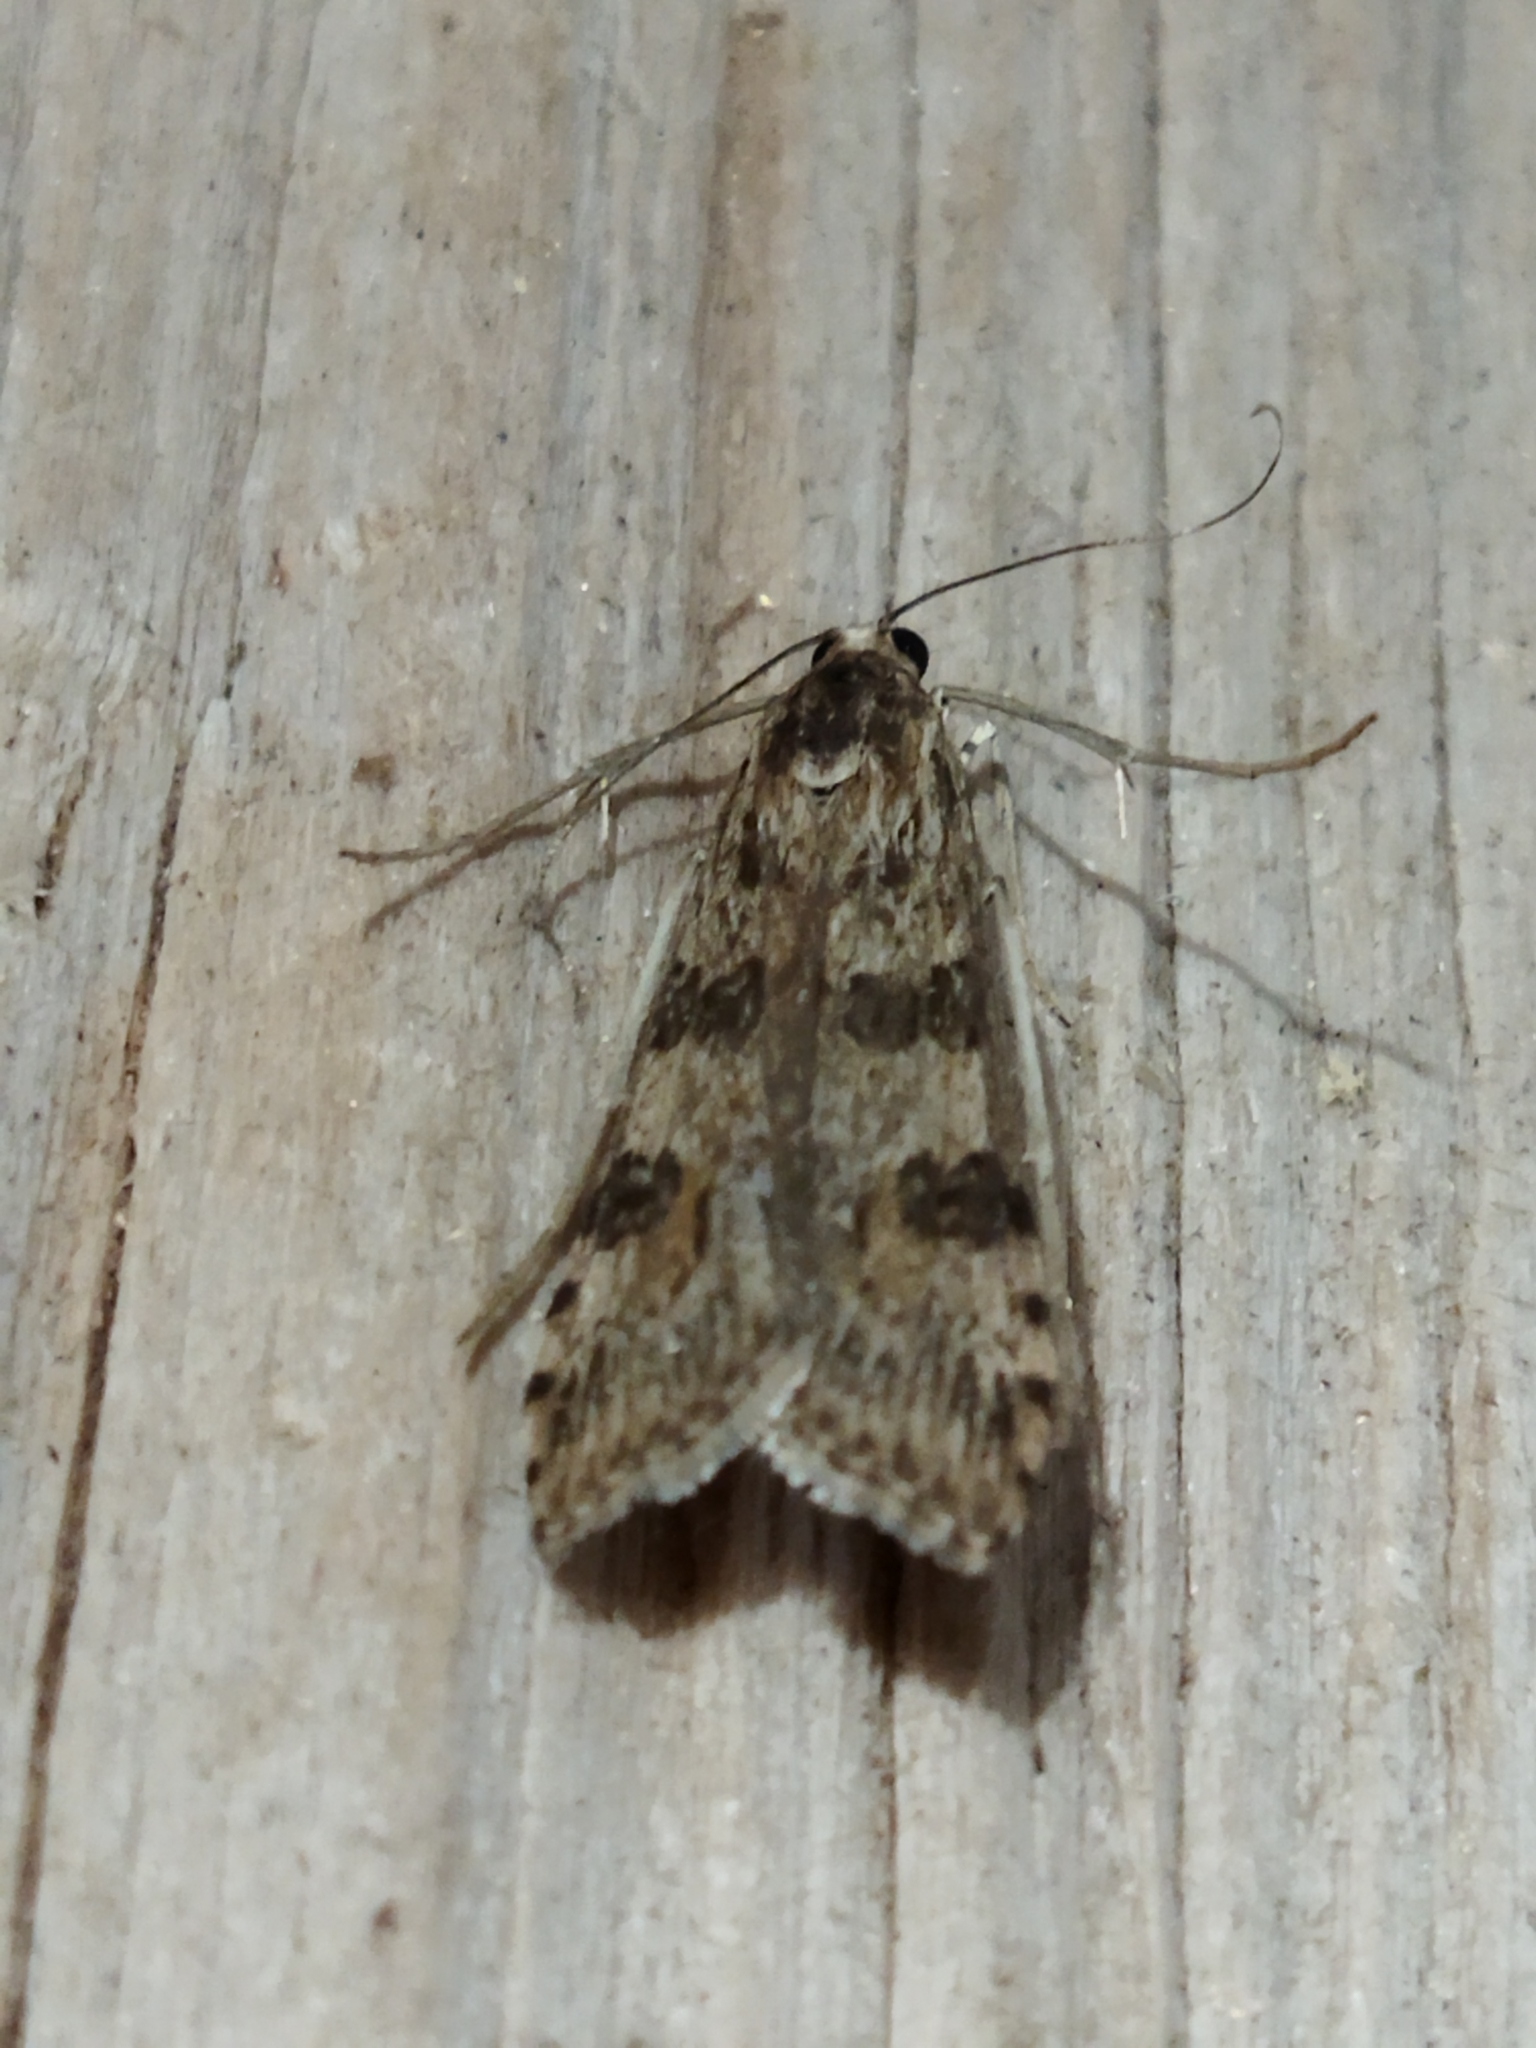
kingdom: Animalia
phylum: Arthropoda
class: Insecta
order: Lepidoptera
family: Crambidae
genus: Nomophila
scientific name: Nomophila noctuella
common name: Rush veneer
